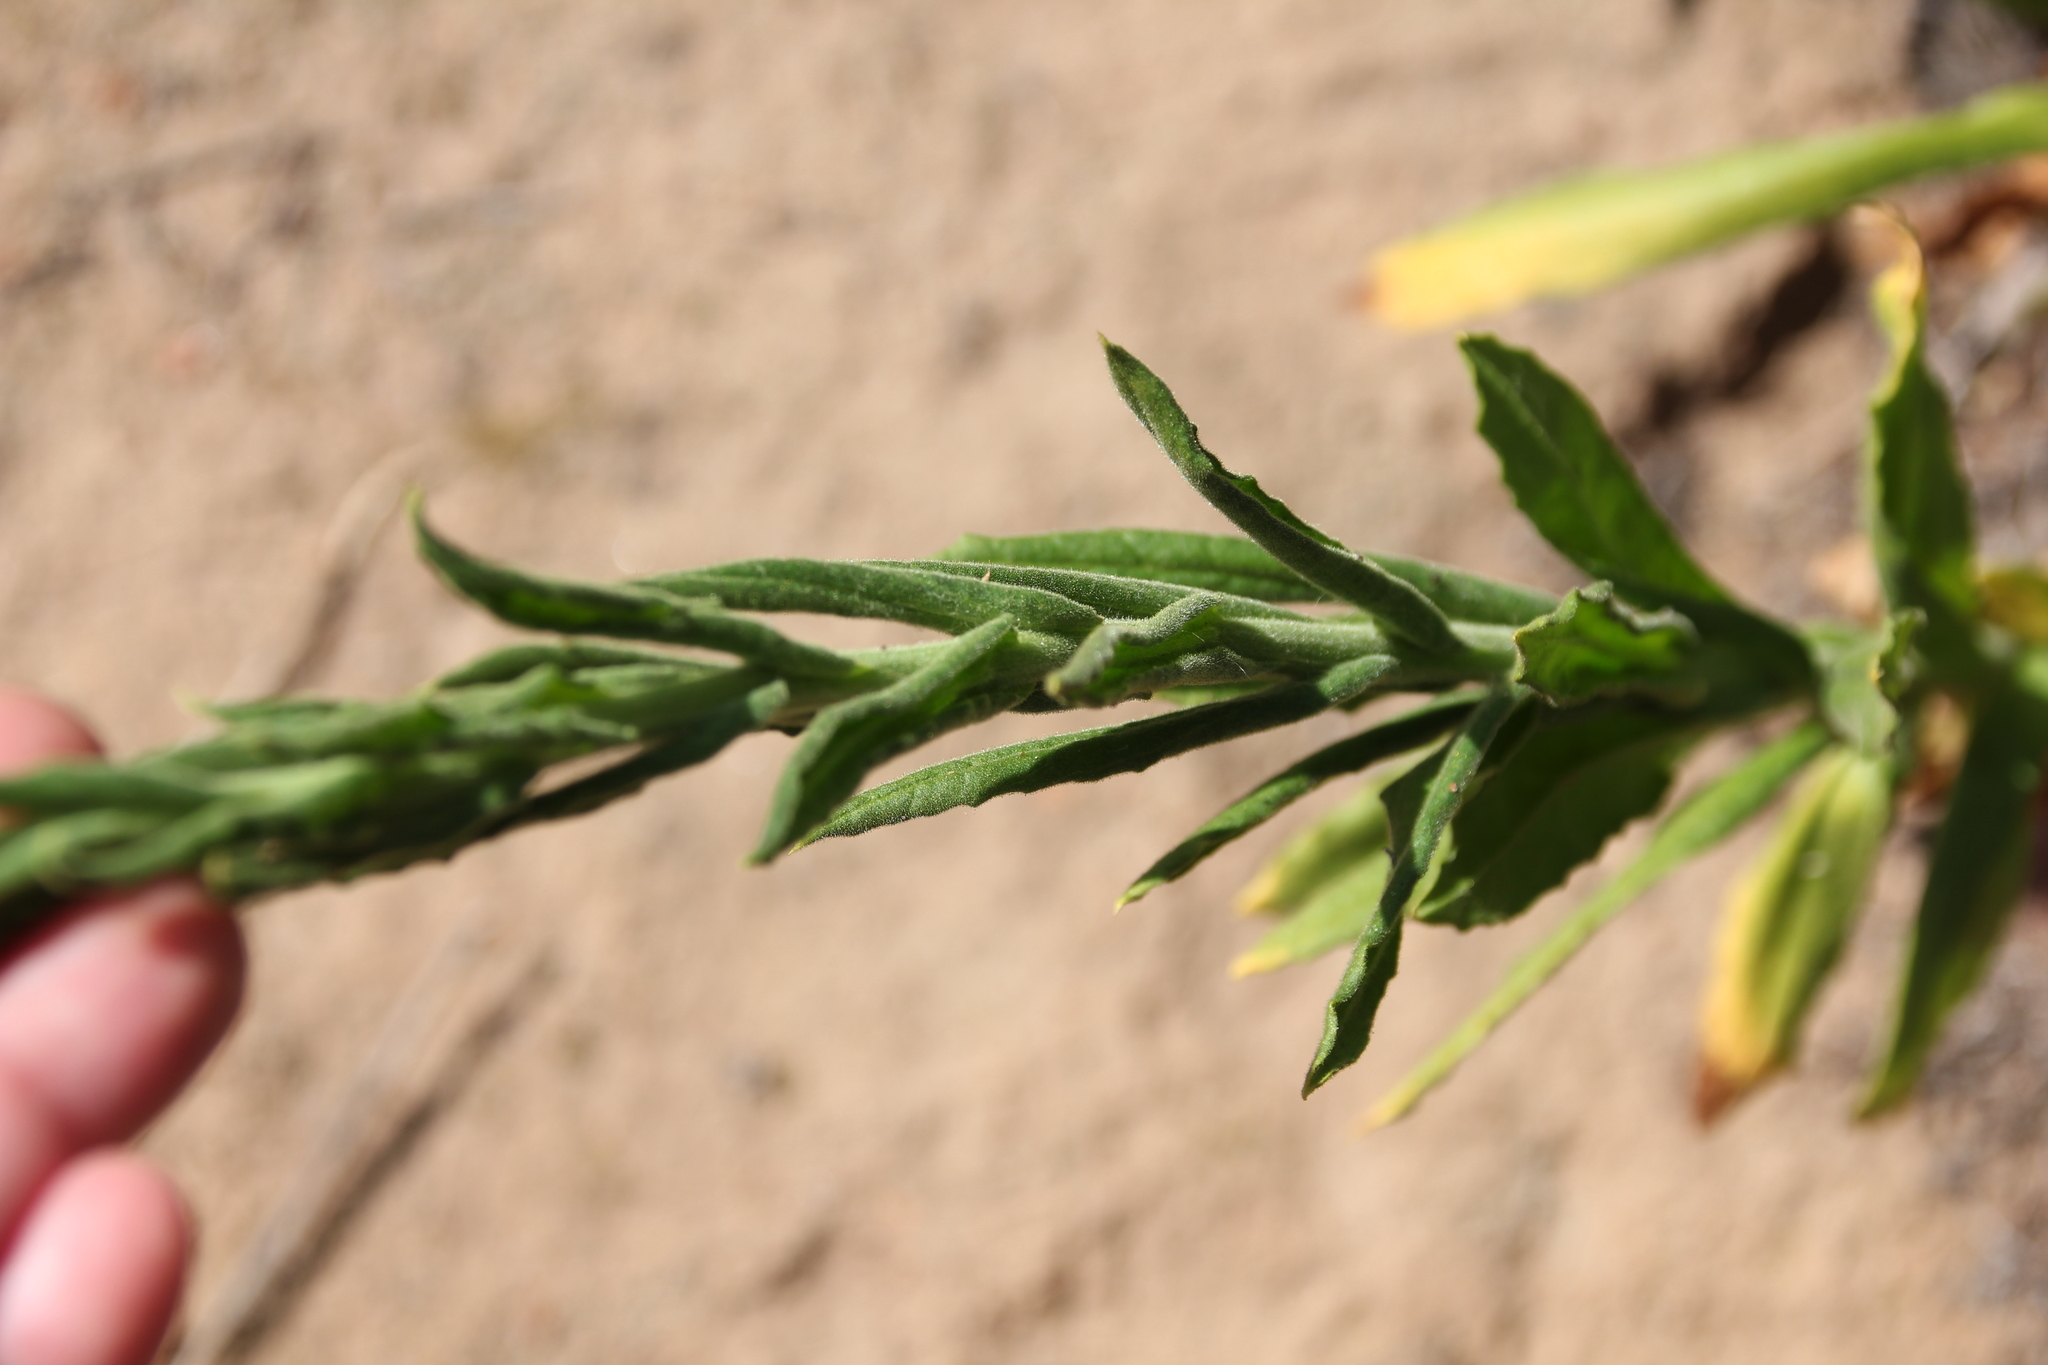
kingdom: Plantae
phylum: Tracheophyta
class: Magnoliopsida
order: Asterales
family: Asteraceae
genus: Pseudognaphalium
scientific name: Pseudognaphalium californicum
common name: California rabbit-tobacco
